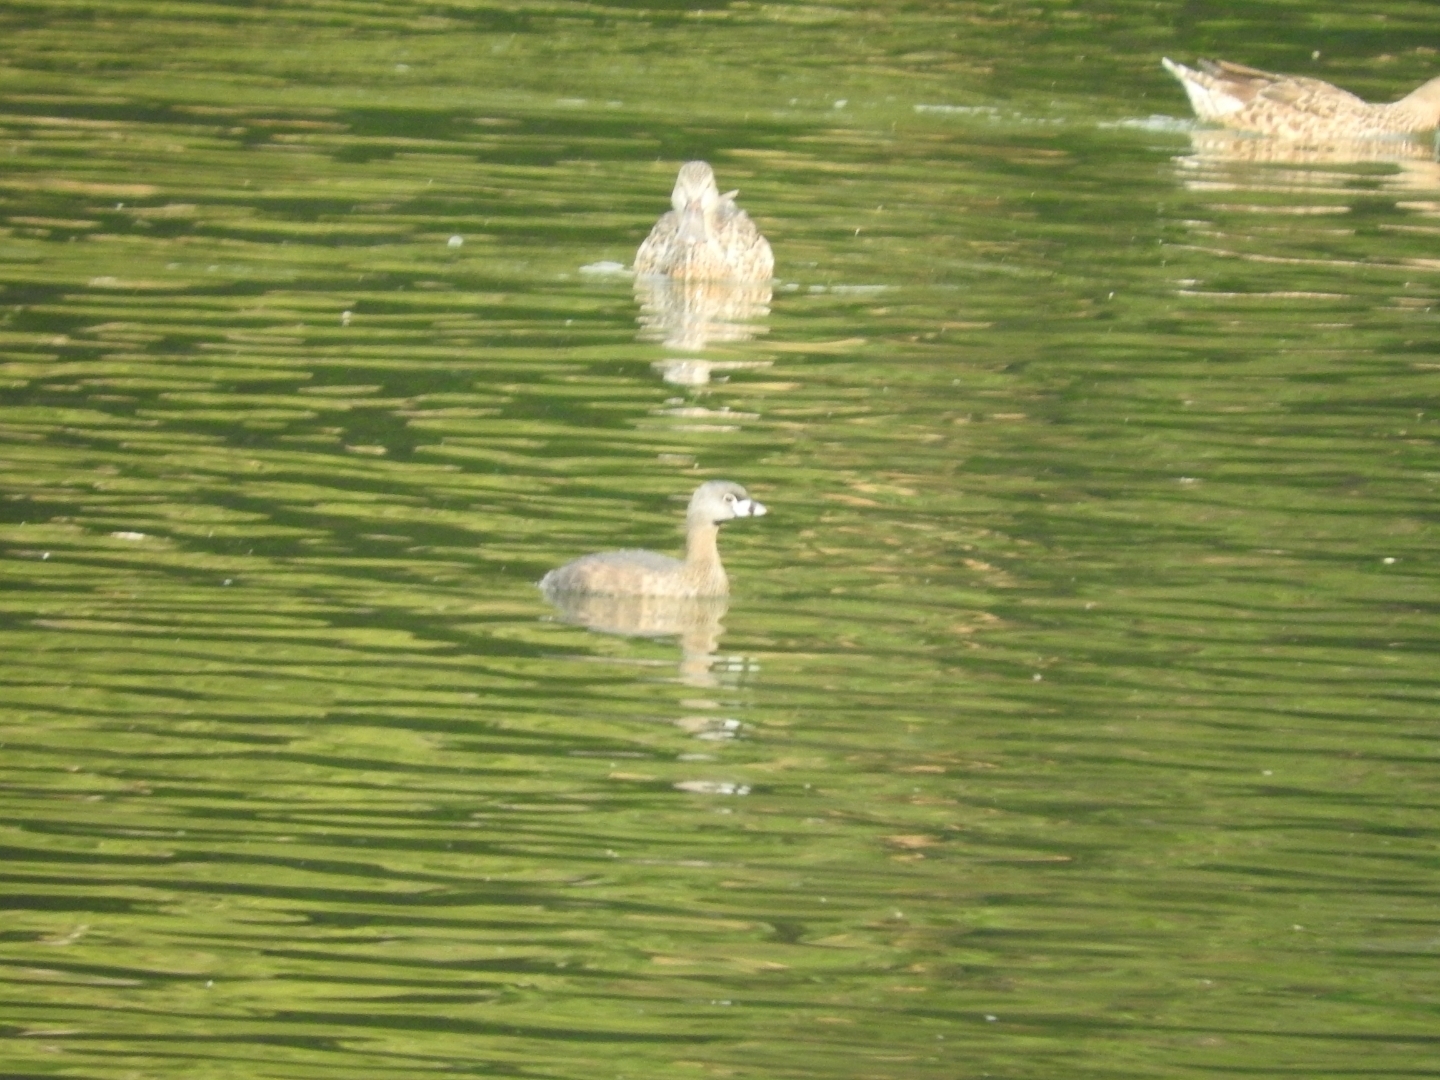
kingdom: Animalia
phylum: Chordata
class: Aves
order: Podicipediformes
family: Podicipedidae
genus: Podilymbus
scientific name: Podilymbus podiceps
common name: Pied-billed grebe
